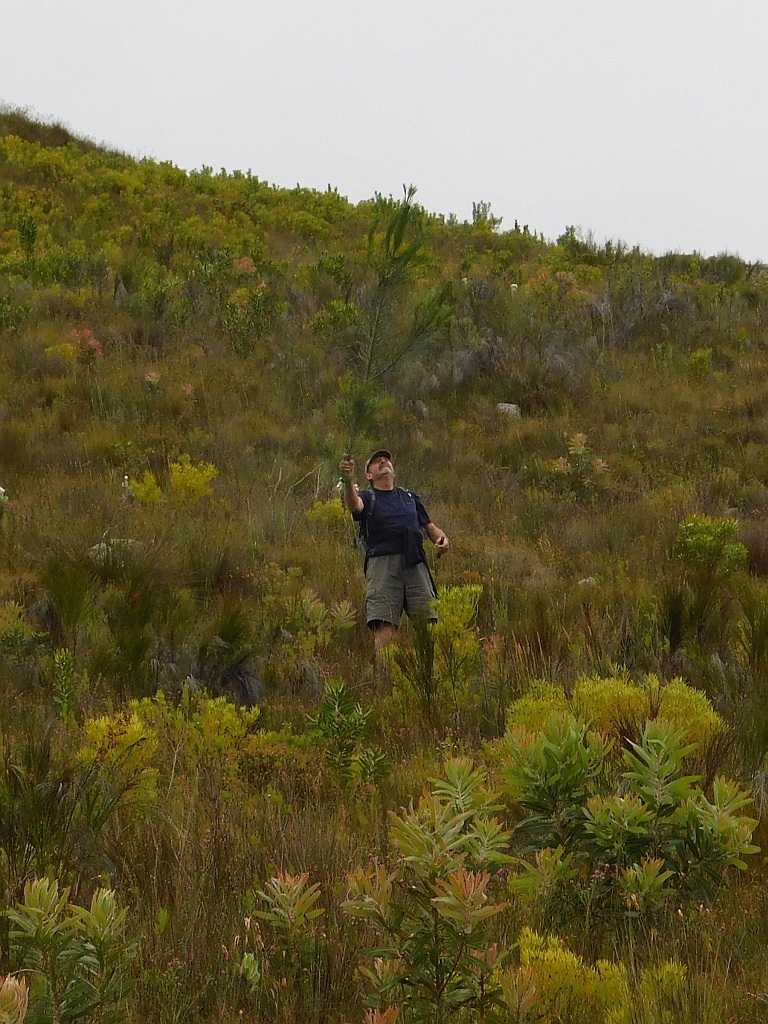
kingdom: Plantae
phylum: Tracheophyta
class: Pinopsida
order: Pinales
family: Pinaceae
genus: Pinus
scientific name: Pinus pinaster
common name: Maritime pine
